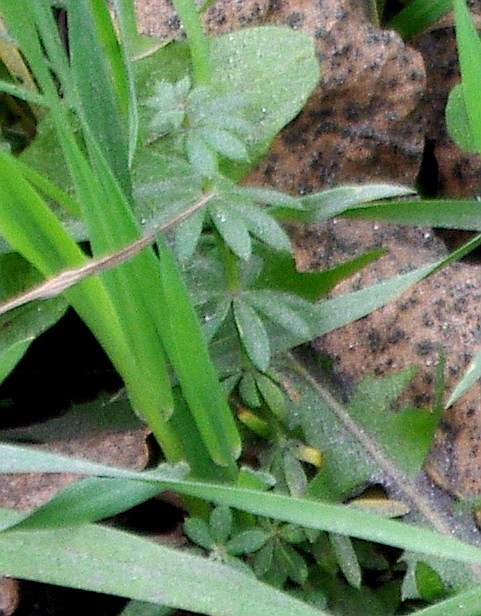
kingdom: Plantae
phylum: Tracheophyta
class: Magnoliopsida
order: Gentianales
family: Rubiaceae
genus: Galium
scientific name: Galium mollugo
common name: Hedge bedstraw
